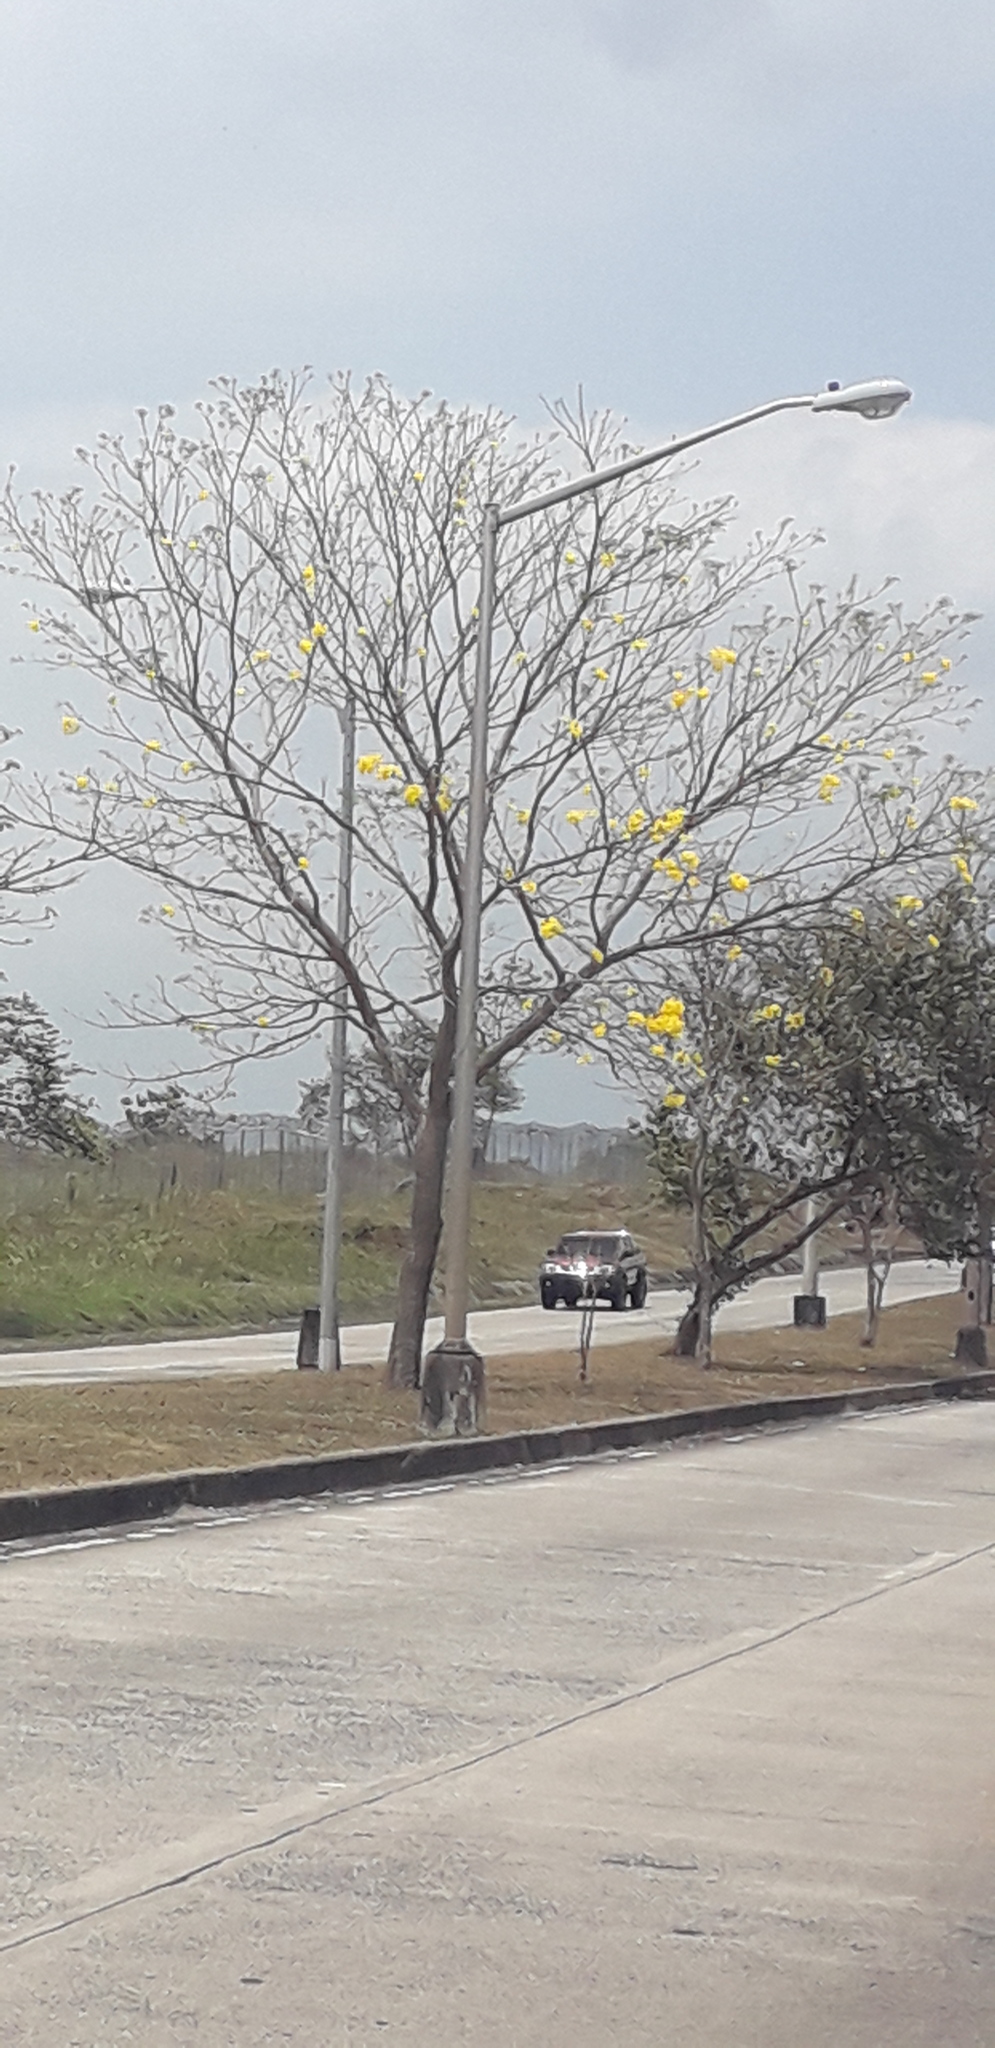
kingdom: Plantae
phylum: Tracheophyta
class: Magnoliopsida
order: Lamiales
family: Bignoniaceae
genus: Handroanthus
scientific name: Handroanthus guayacan
